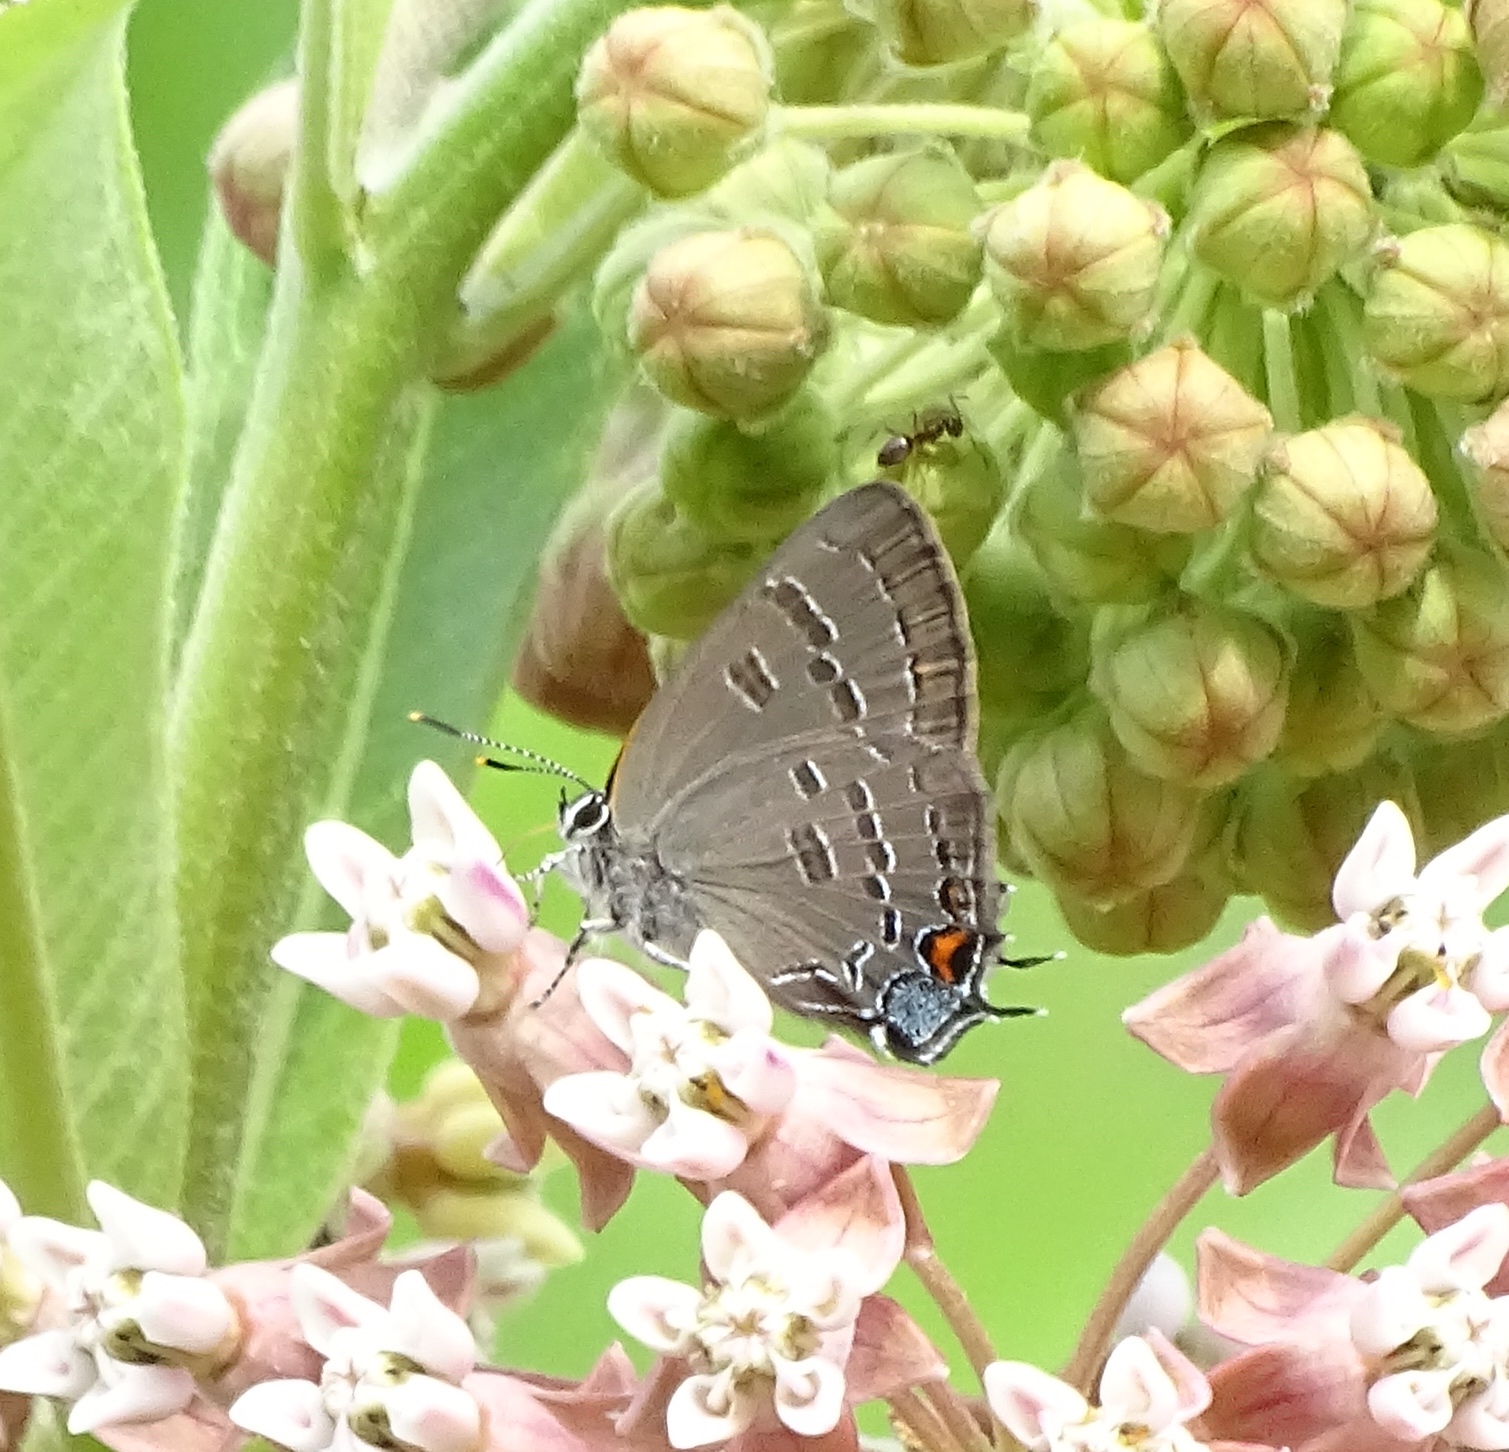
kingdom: Animalia
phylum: Arthropoda
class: Insecta
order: Lepidoptera
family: Lycaenidae
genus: Satyrium
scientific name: Satyrium calanus
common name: Banded hairstreak
